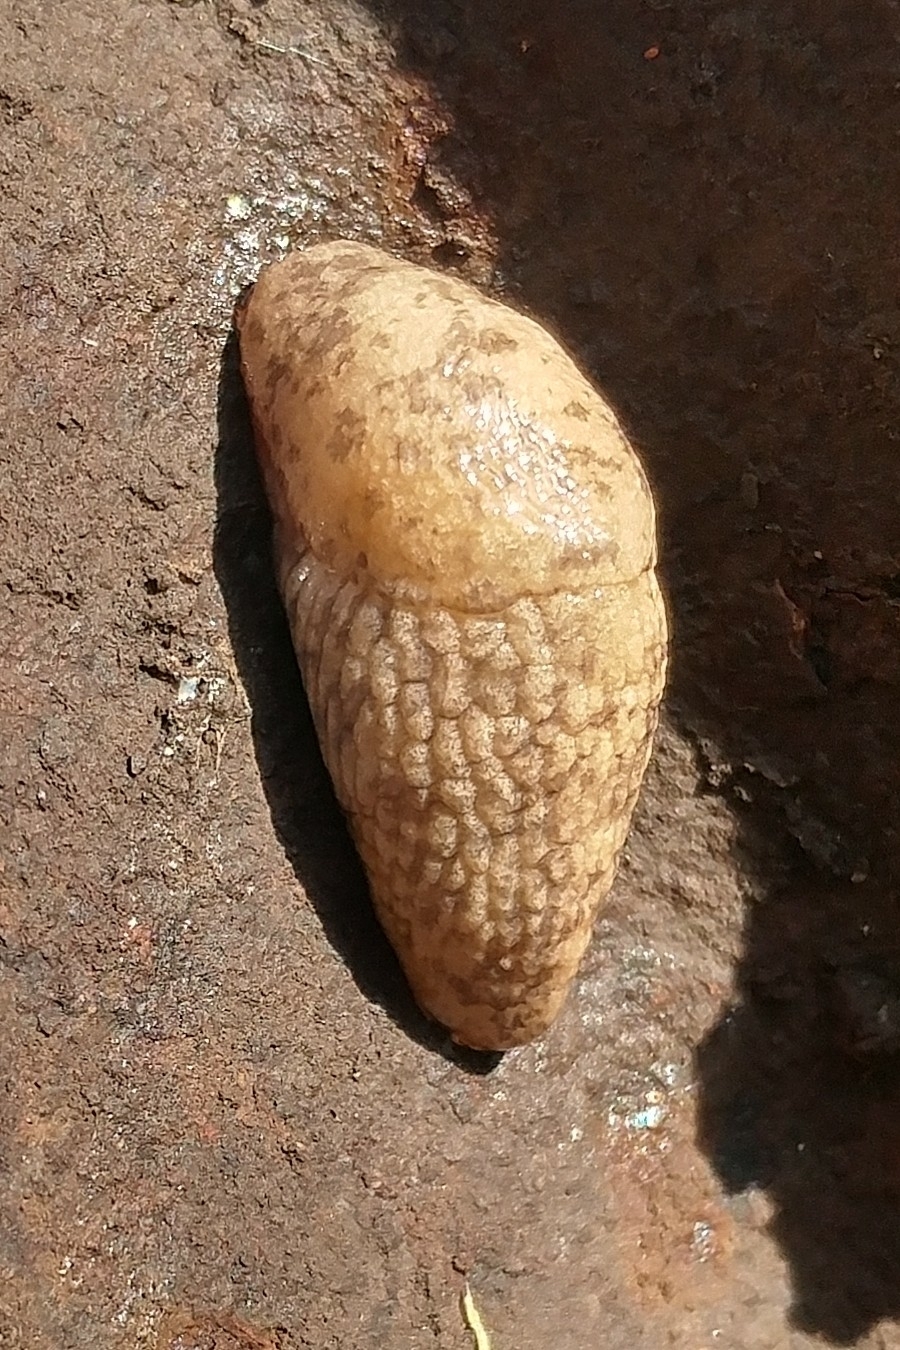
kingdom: Animalia
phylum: Mollusca
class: Gastropoda
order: Stylommatophora
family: Agriolimacidae
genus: Deroceras
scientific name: Deroceras reticulatum
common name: Gray field slug
